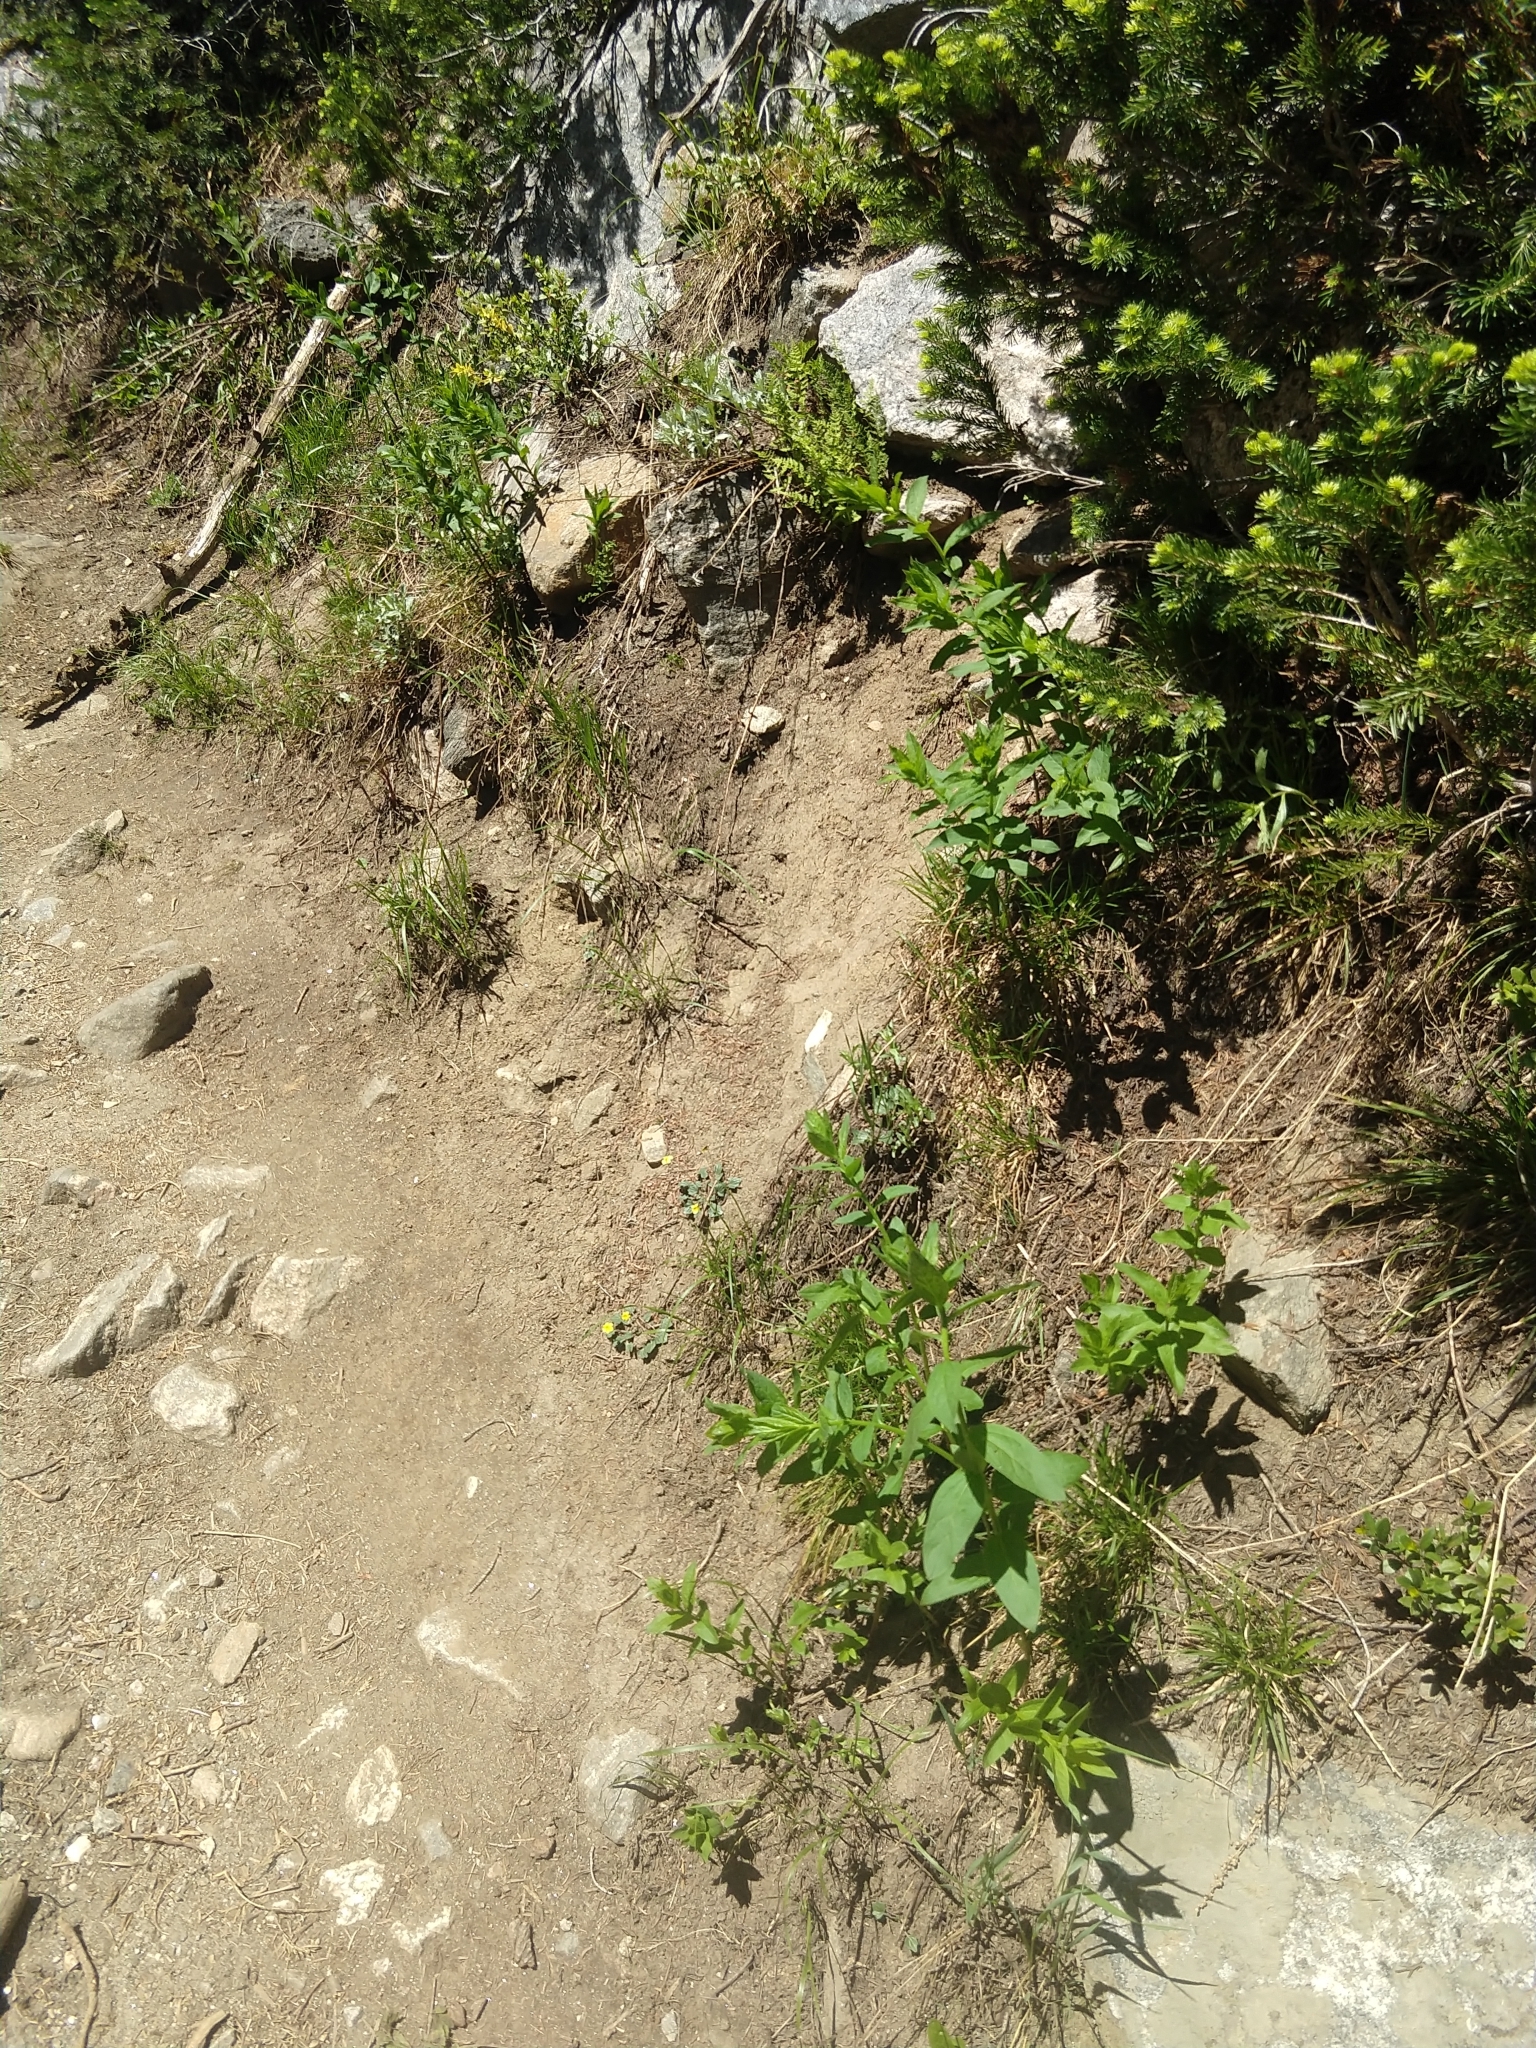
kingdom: Plantae
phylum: Tracheophyta
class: Magnoliopsida
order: Malpighiales
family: Violaceae
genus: Viola
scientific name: Viola purpurea
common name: Pine violet
